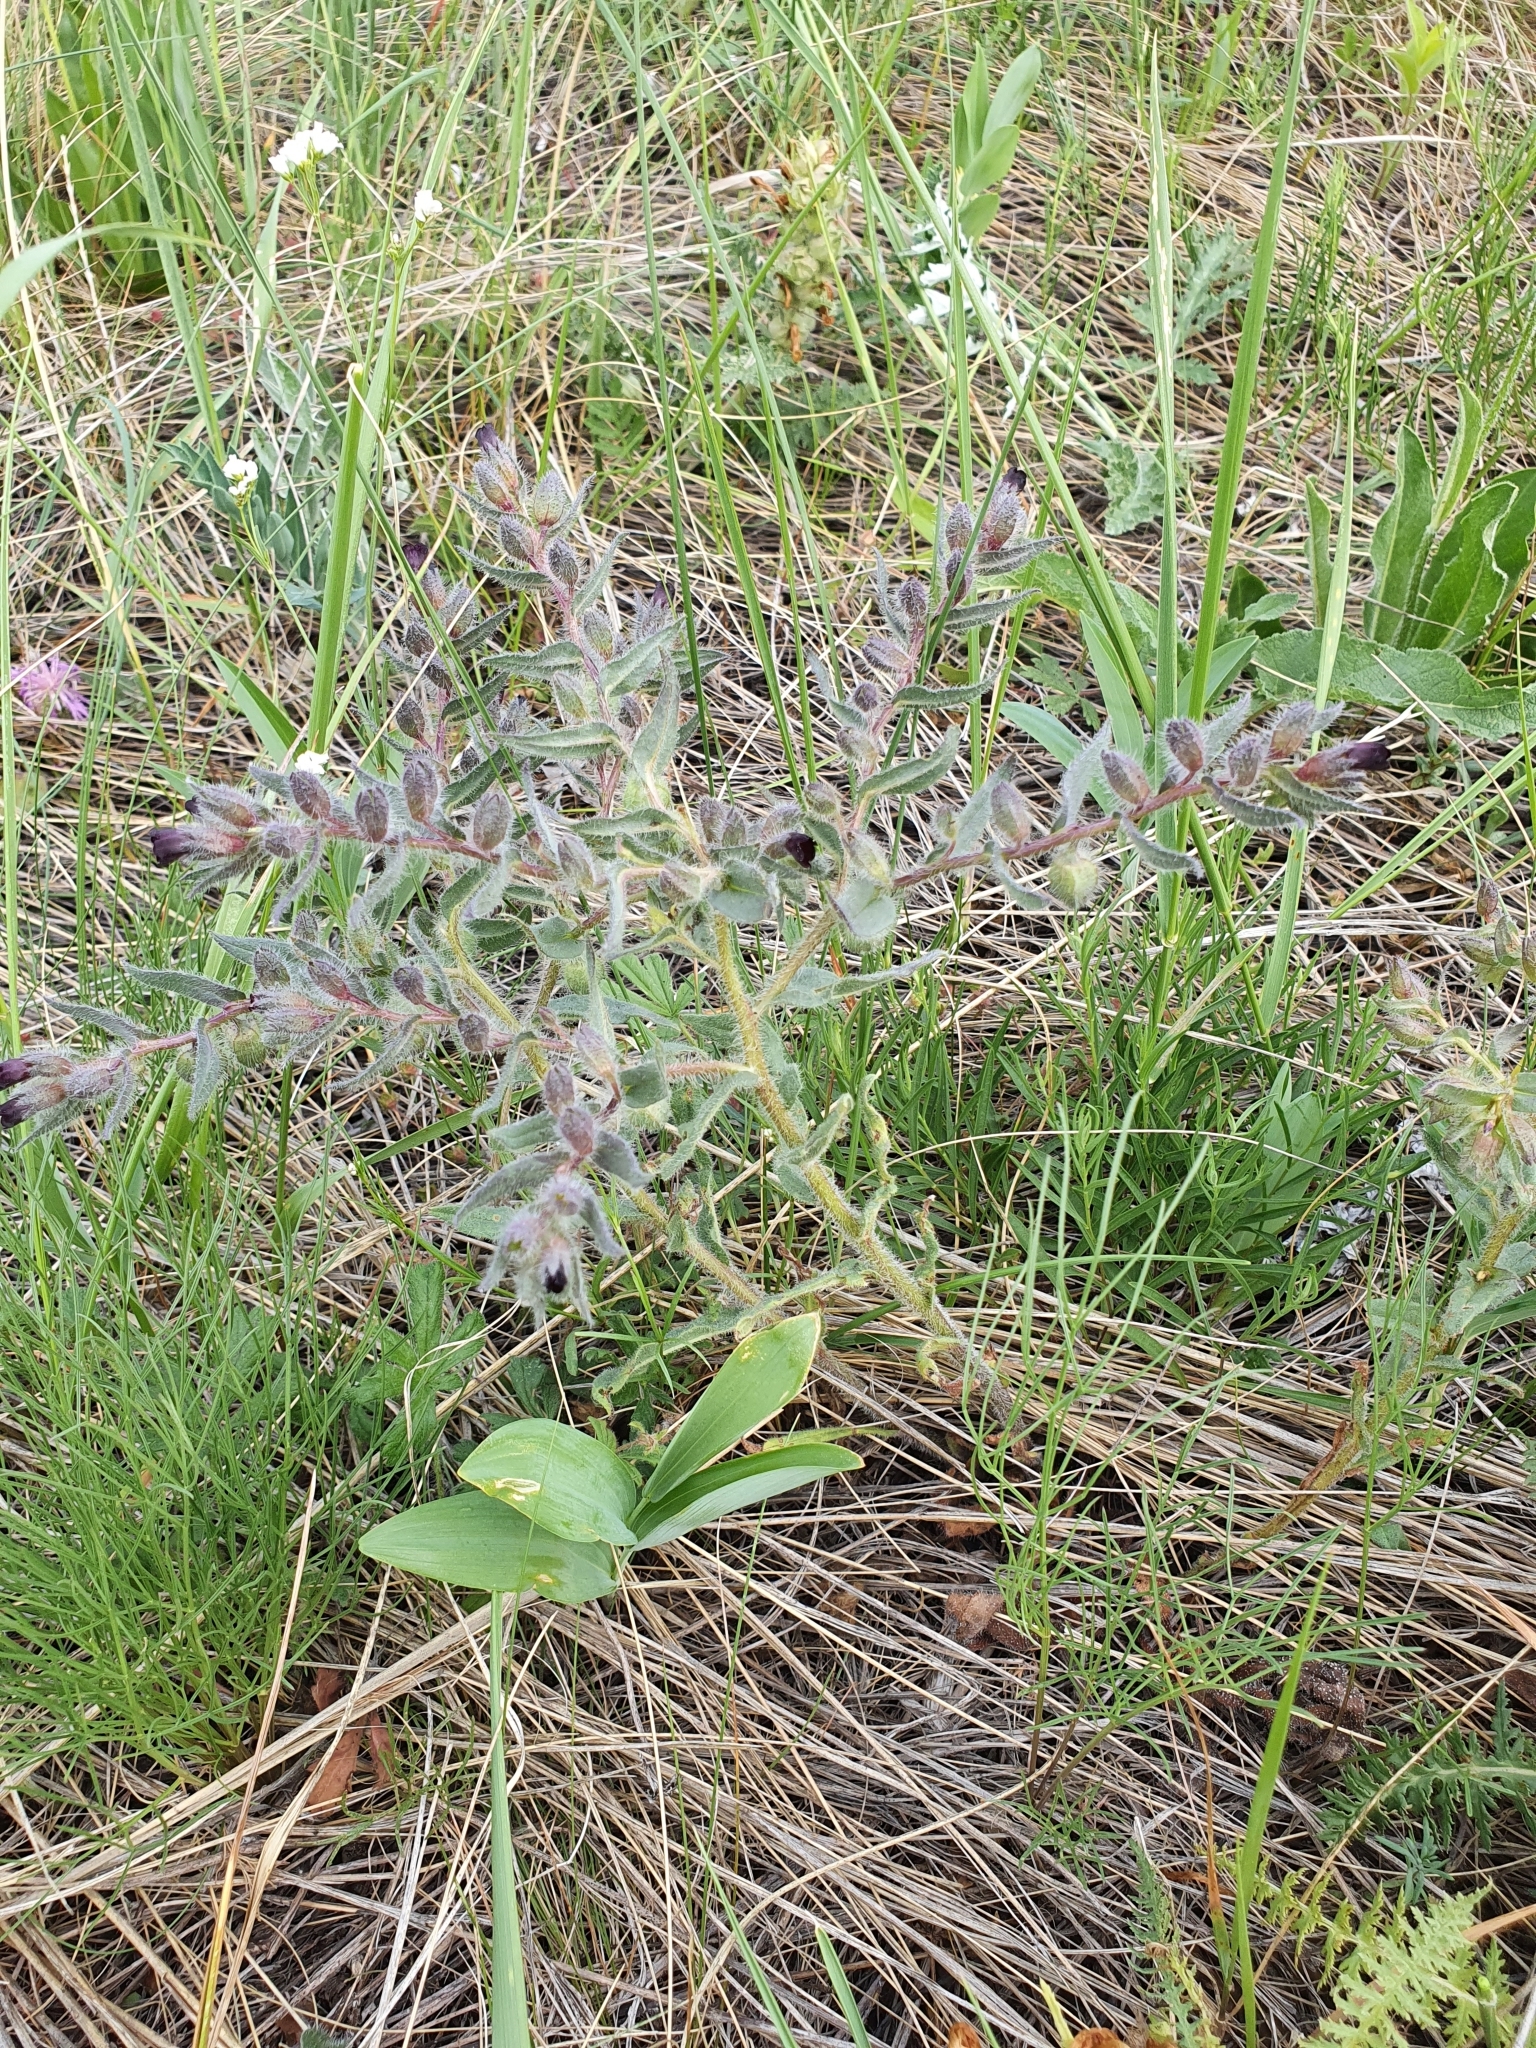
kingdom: Plantae
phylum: Tracheophyta
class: Magnoliopsida
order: Boraginales
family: Boraginaceae
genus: Nonea
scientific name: Nonea pulla
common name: Brown nonea
